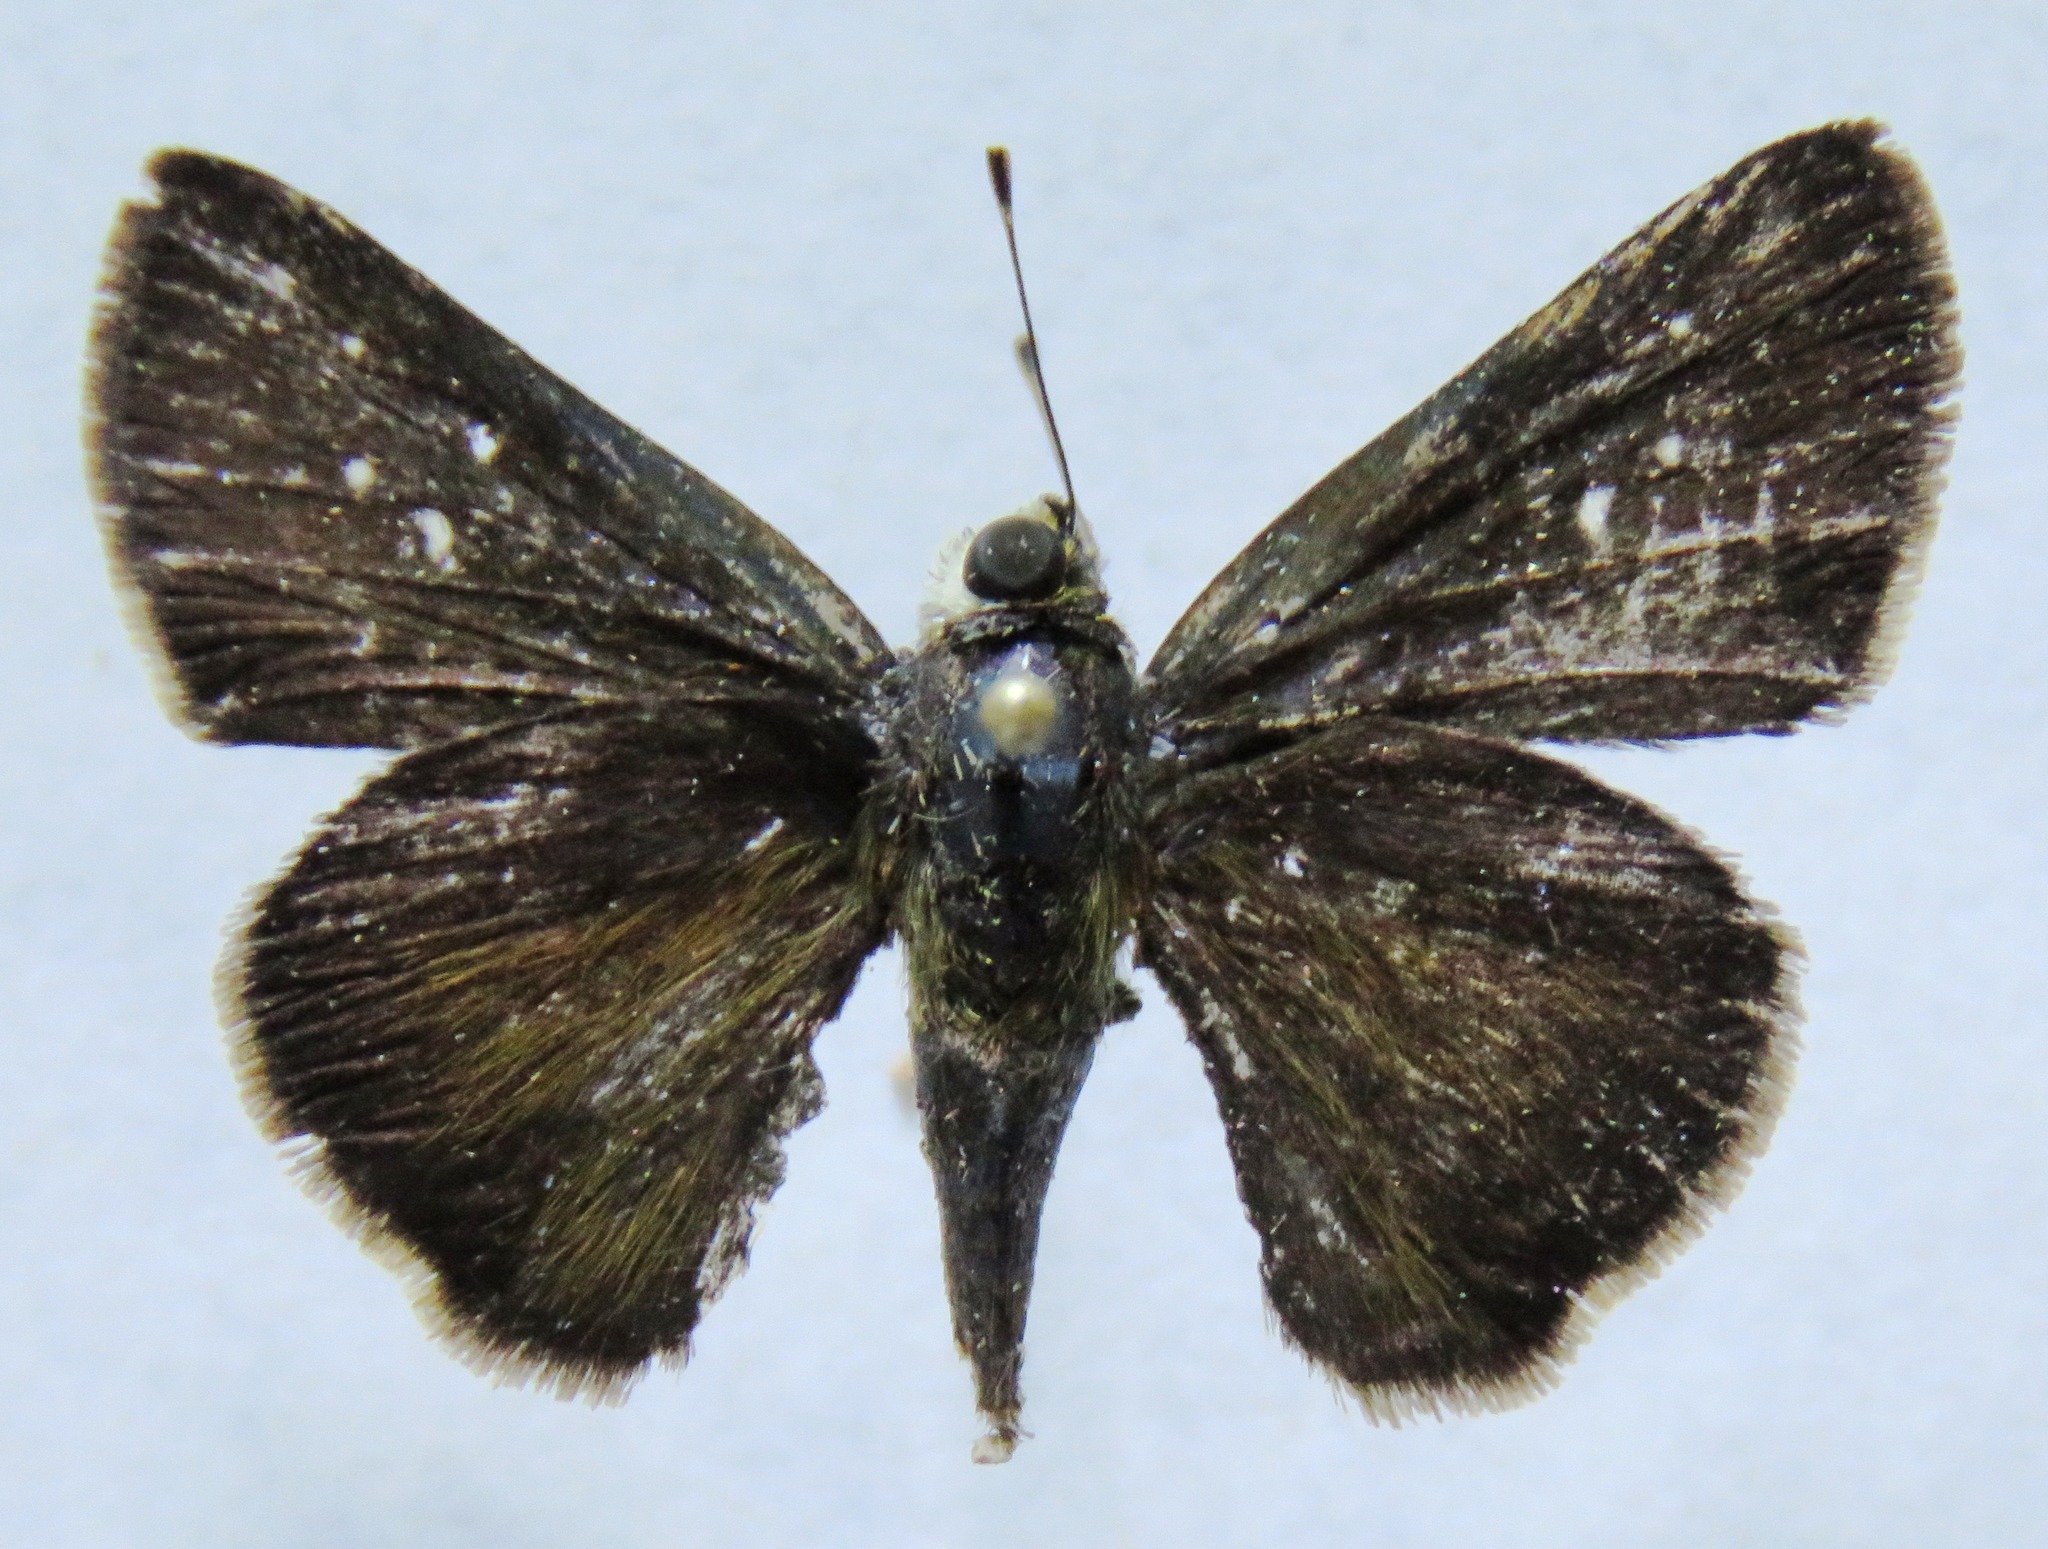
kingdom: Animalia
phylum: Arthropoda
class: Insecta
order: Lepidoptera
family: Hesperiidae
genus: Euphyes
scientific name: Euphyes peneia
